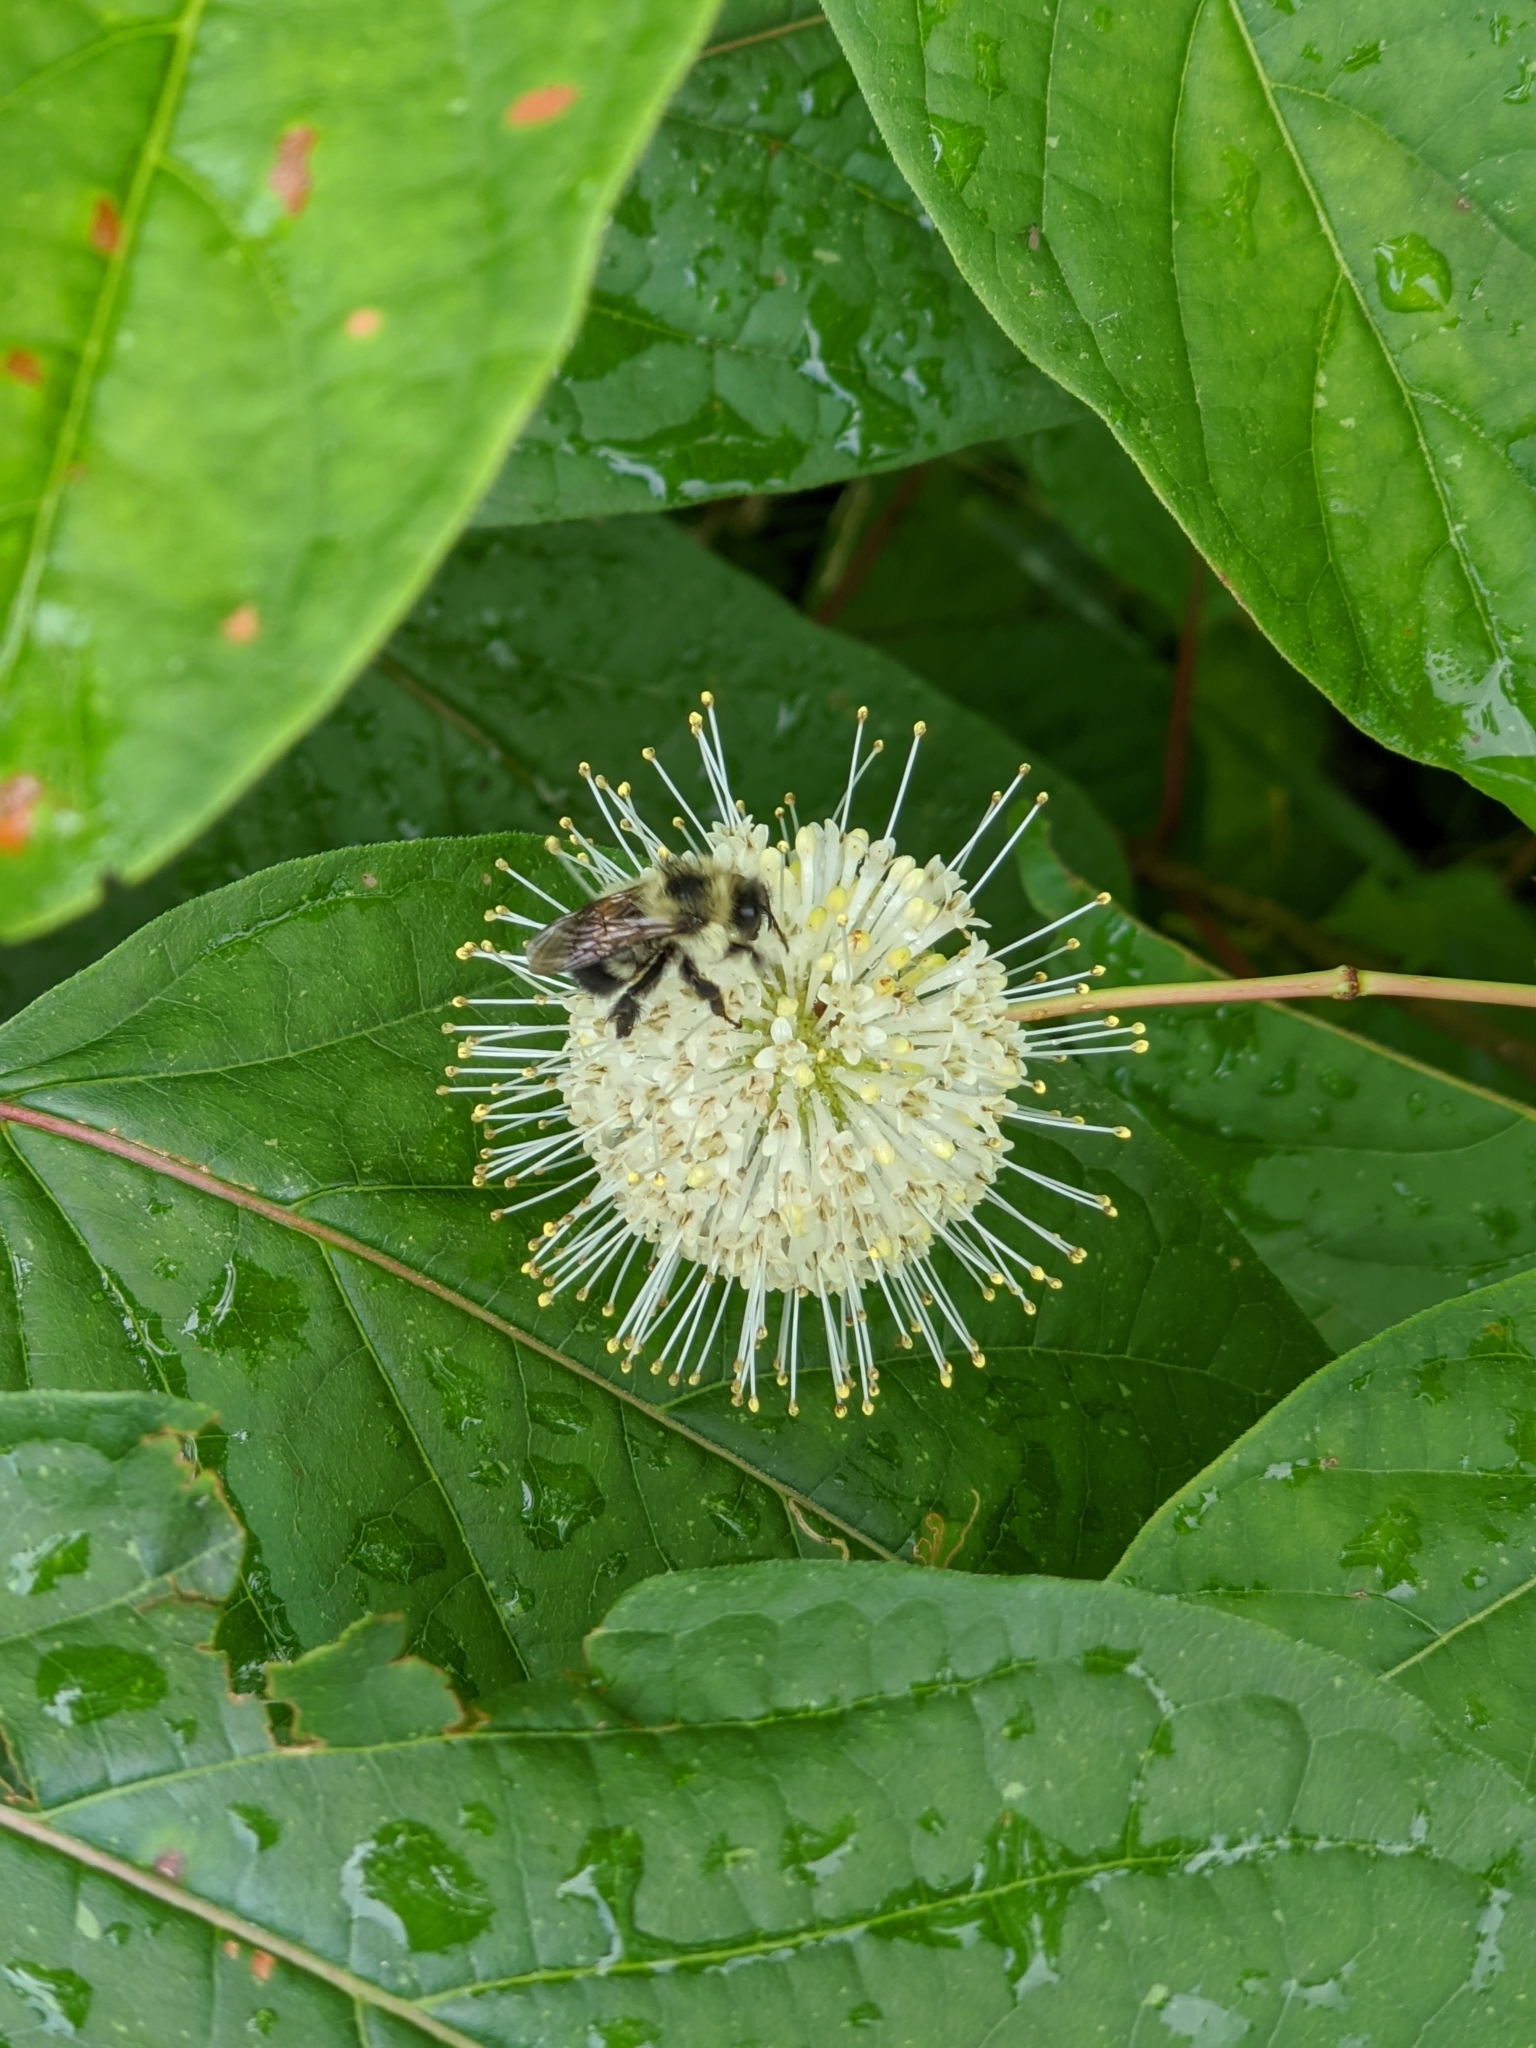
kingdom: Animalia
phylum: Arthropoda
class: Insecta
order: Hymenoptera
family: Apidae
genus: Pyrobombus
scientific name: Pyrobombus
